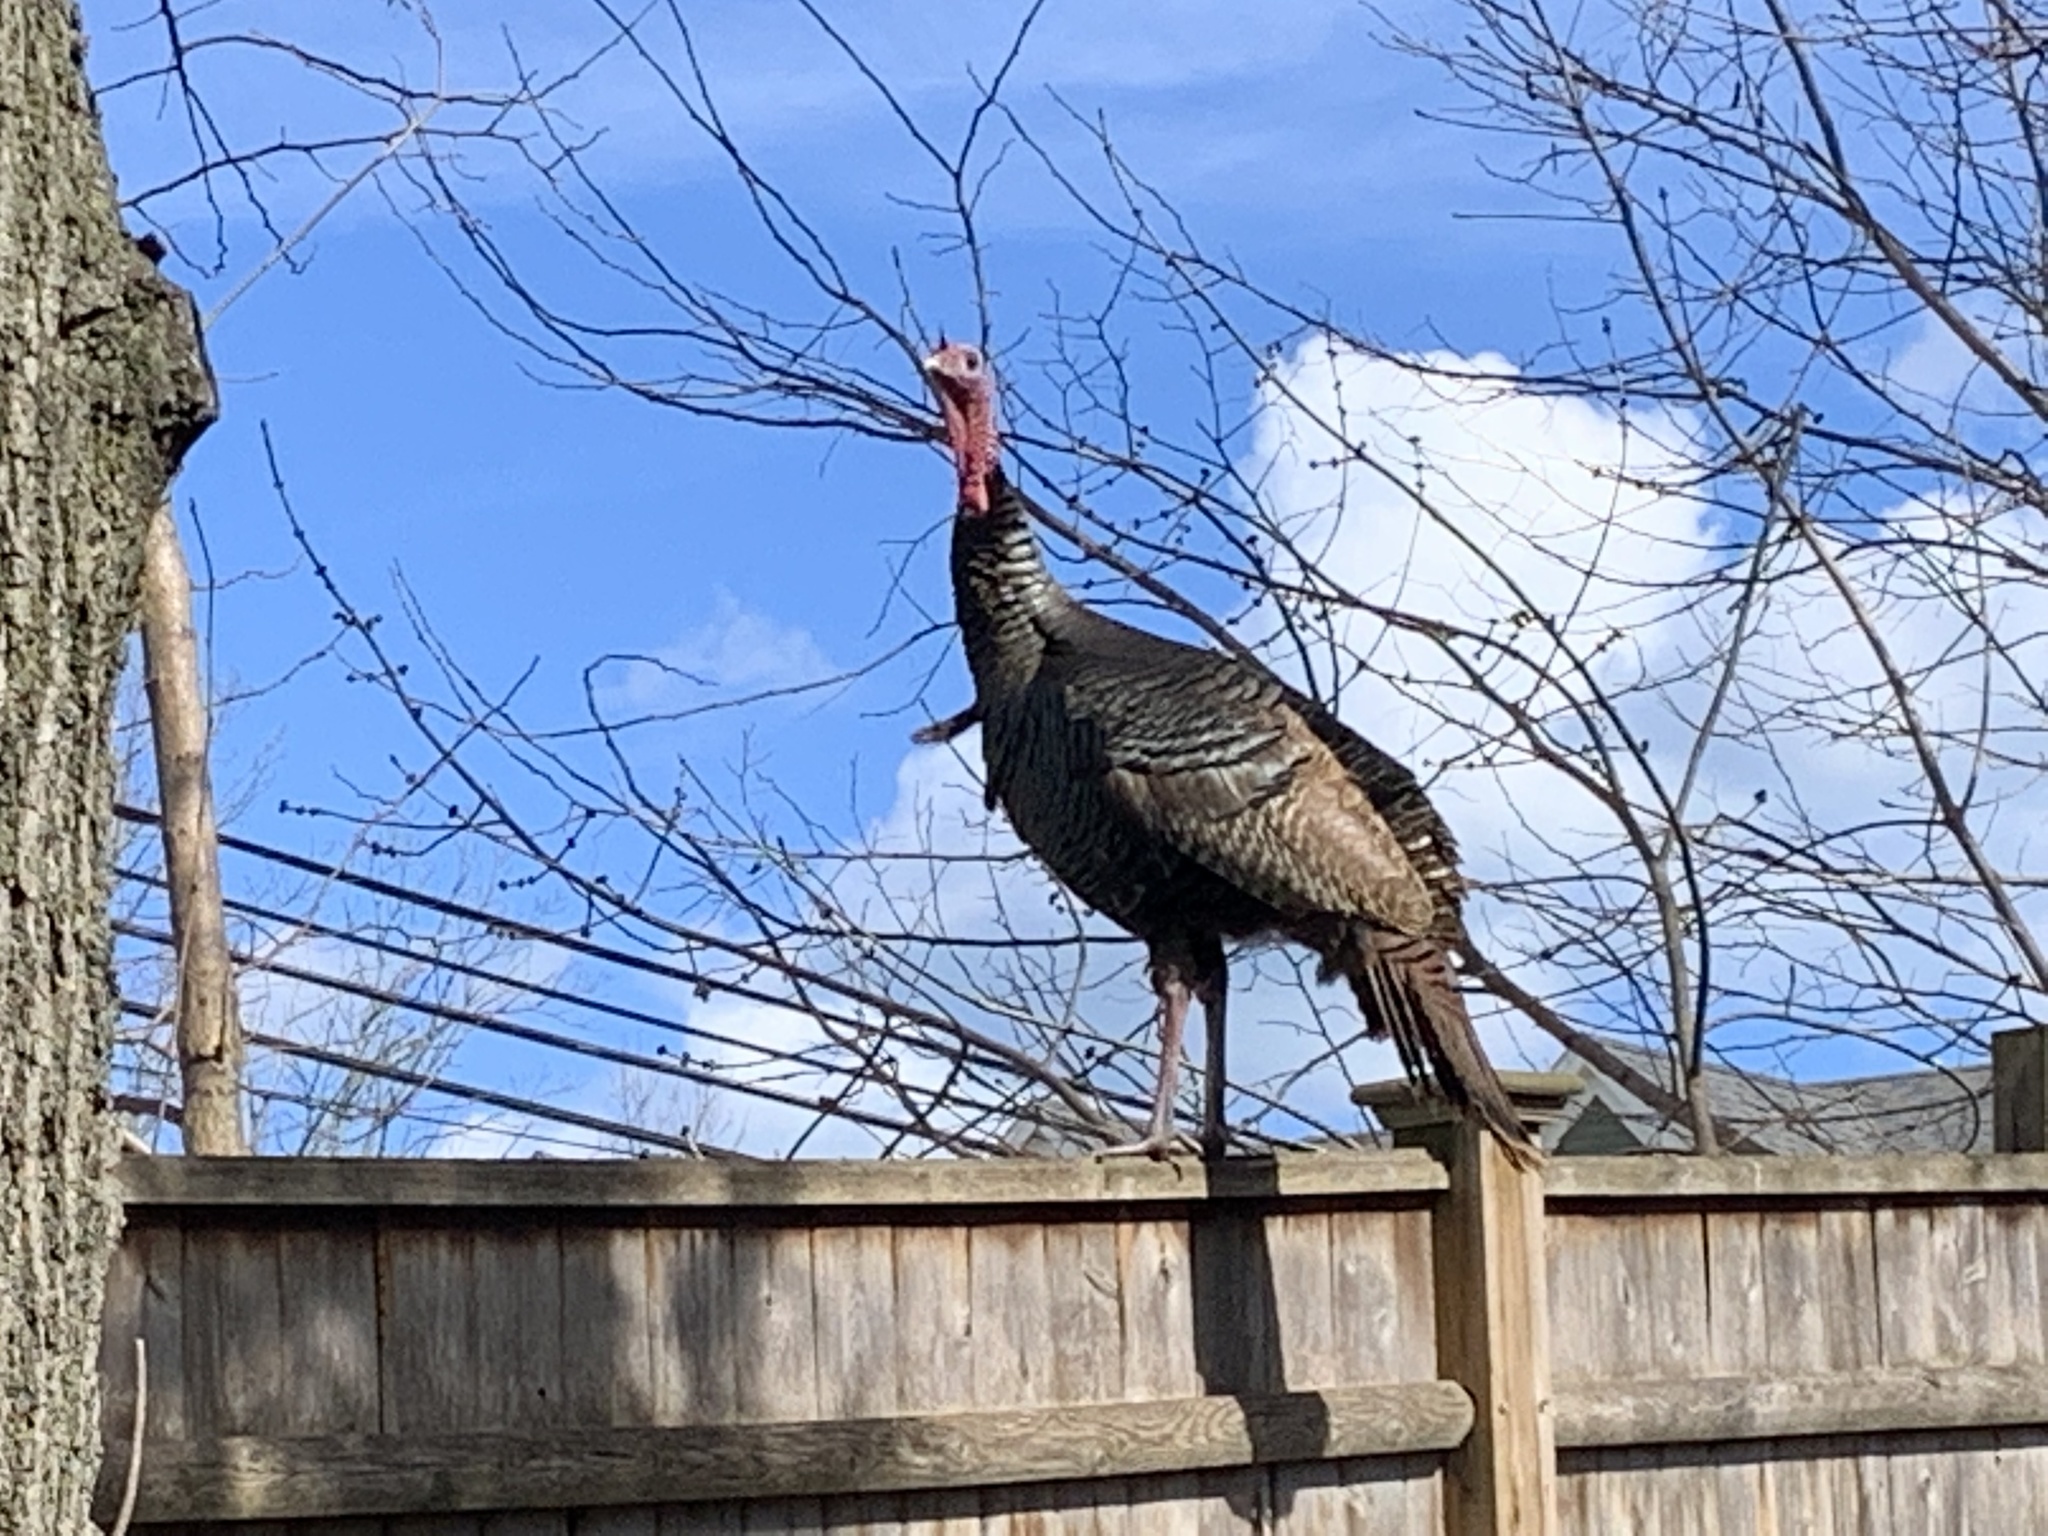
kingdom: Animalia
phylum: Chordata
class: Aves
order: Galliformes
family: Phasianidae
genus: Meleagris
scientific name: Meleagris gallopavo
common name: Wild turkey
